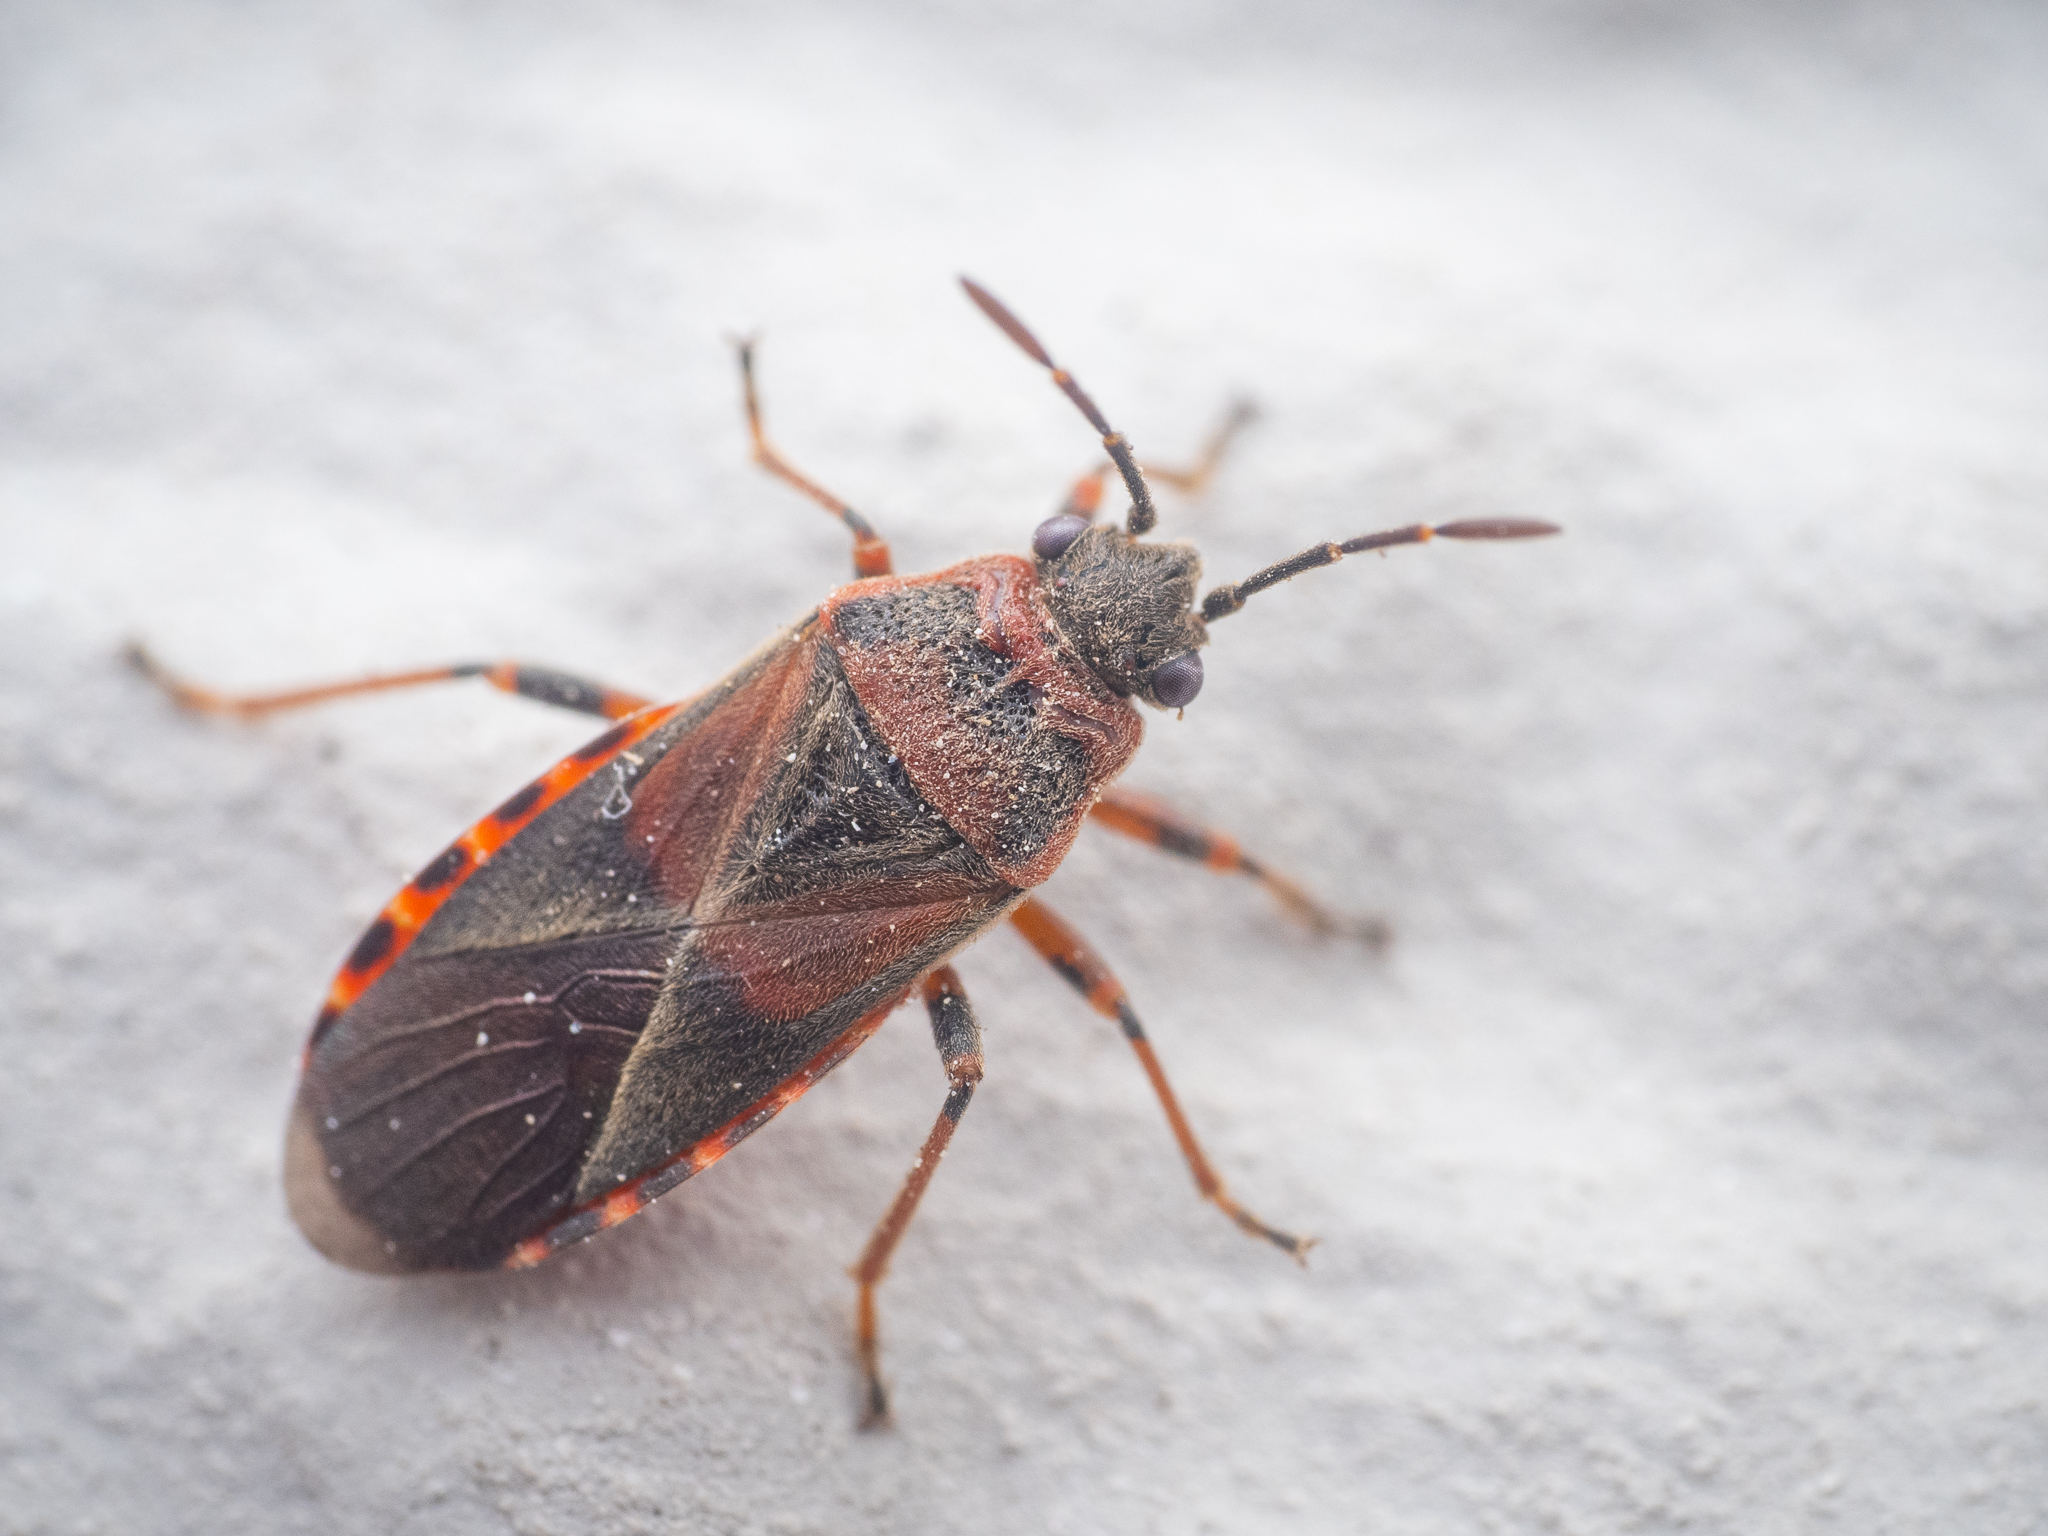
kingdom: Animalia
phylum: Arthropoda
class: Insecta
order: Hemiptera
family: Lygaeidae
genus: Arocatus
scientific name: Arocatus melanocephalus
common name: Lygaeid bug
